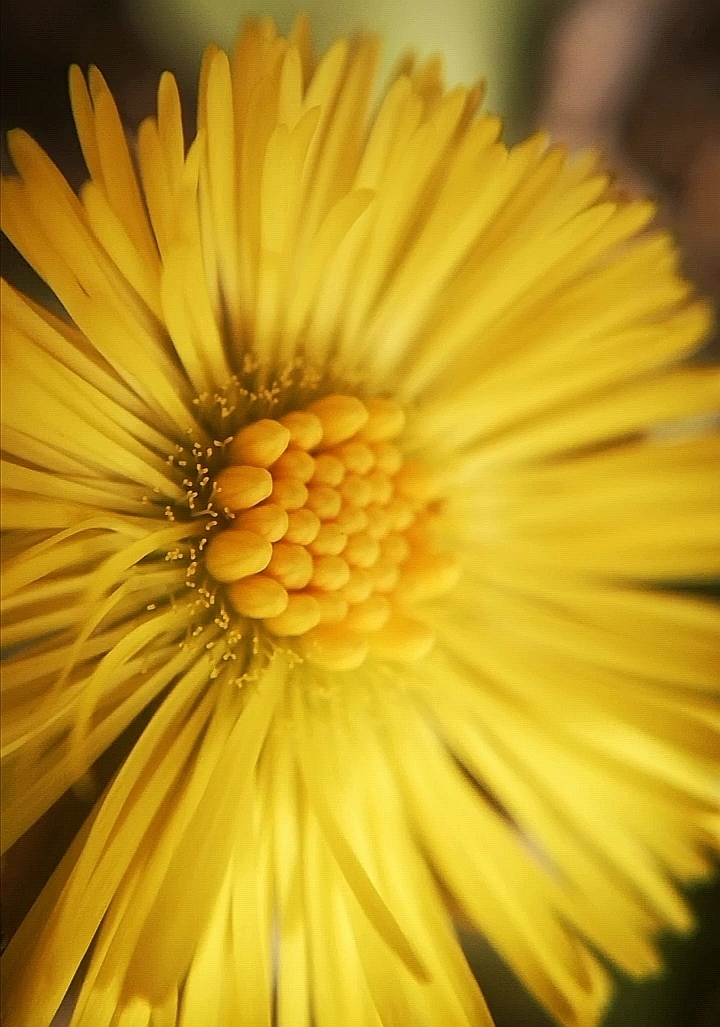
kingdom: Plantae
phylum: Tracheophyta
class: Magnoliopsida
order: Asterales
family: Asteraceae
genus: Tussilago
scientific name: Tussilago farfara
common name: Coltsfoot
